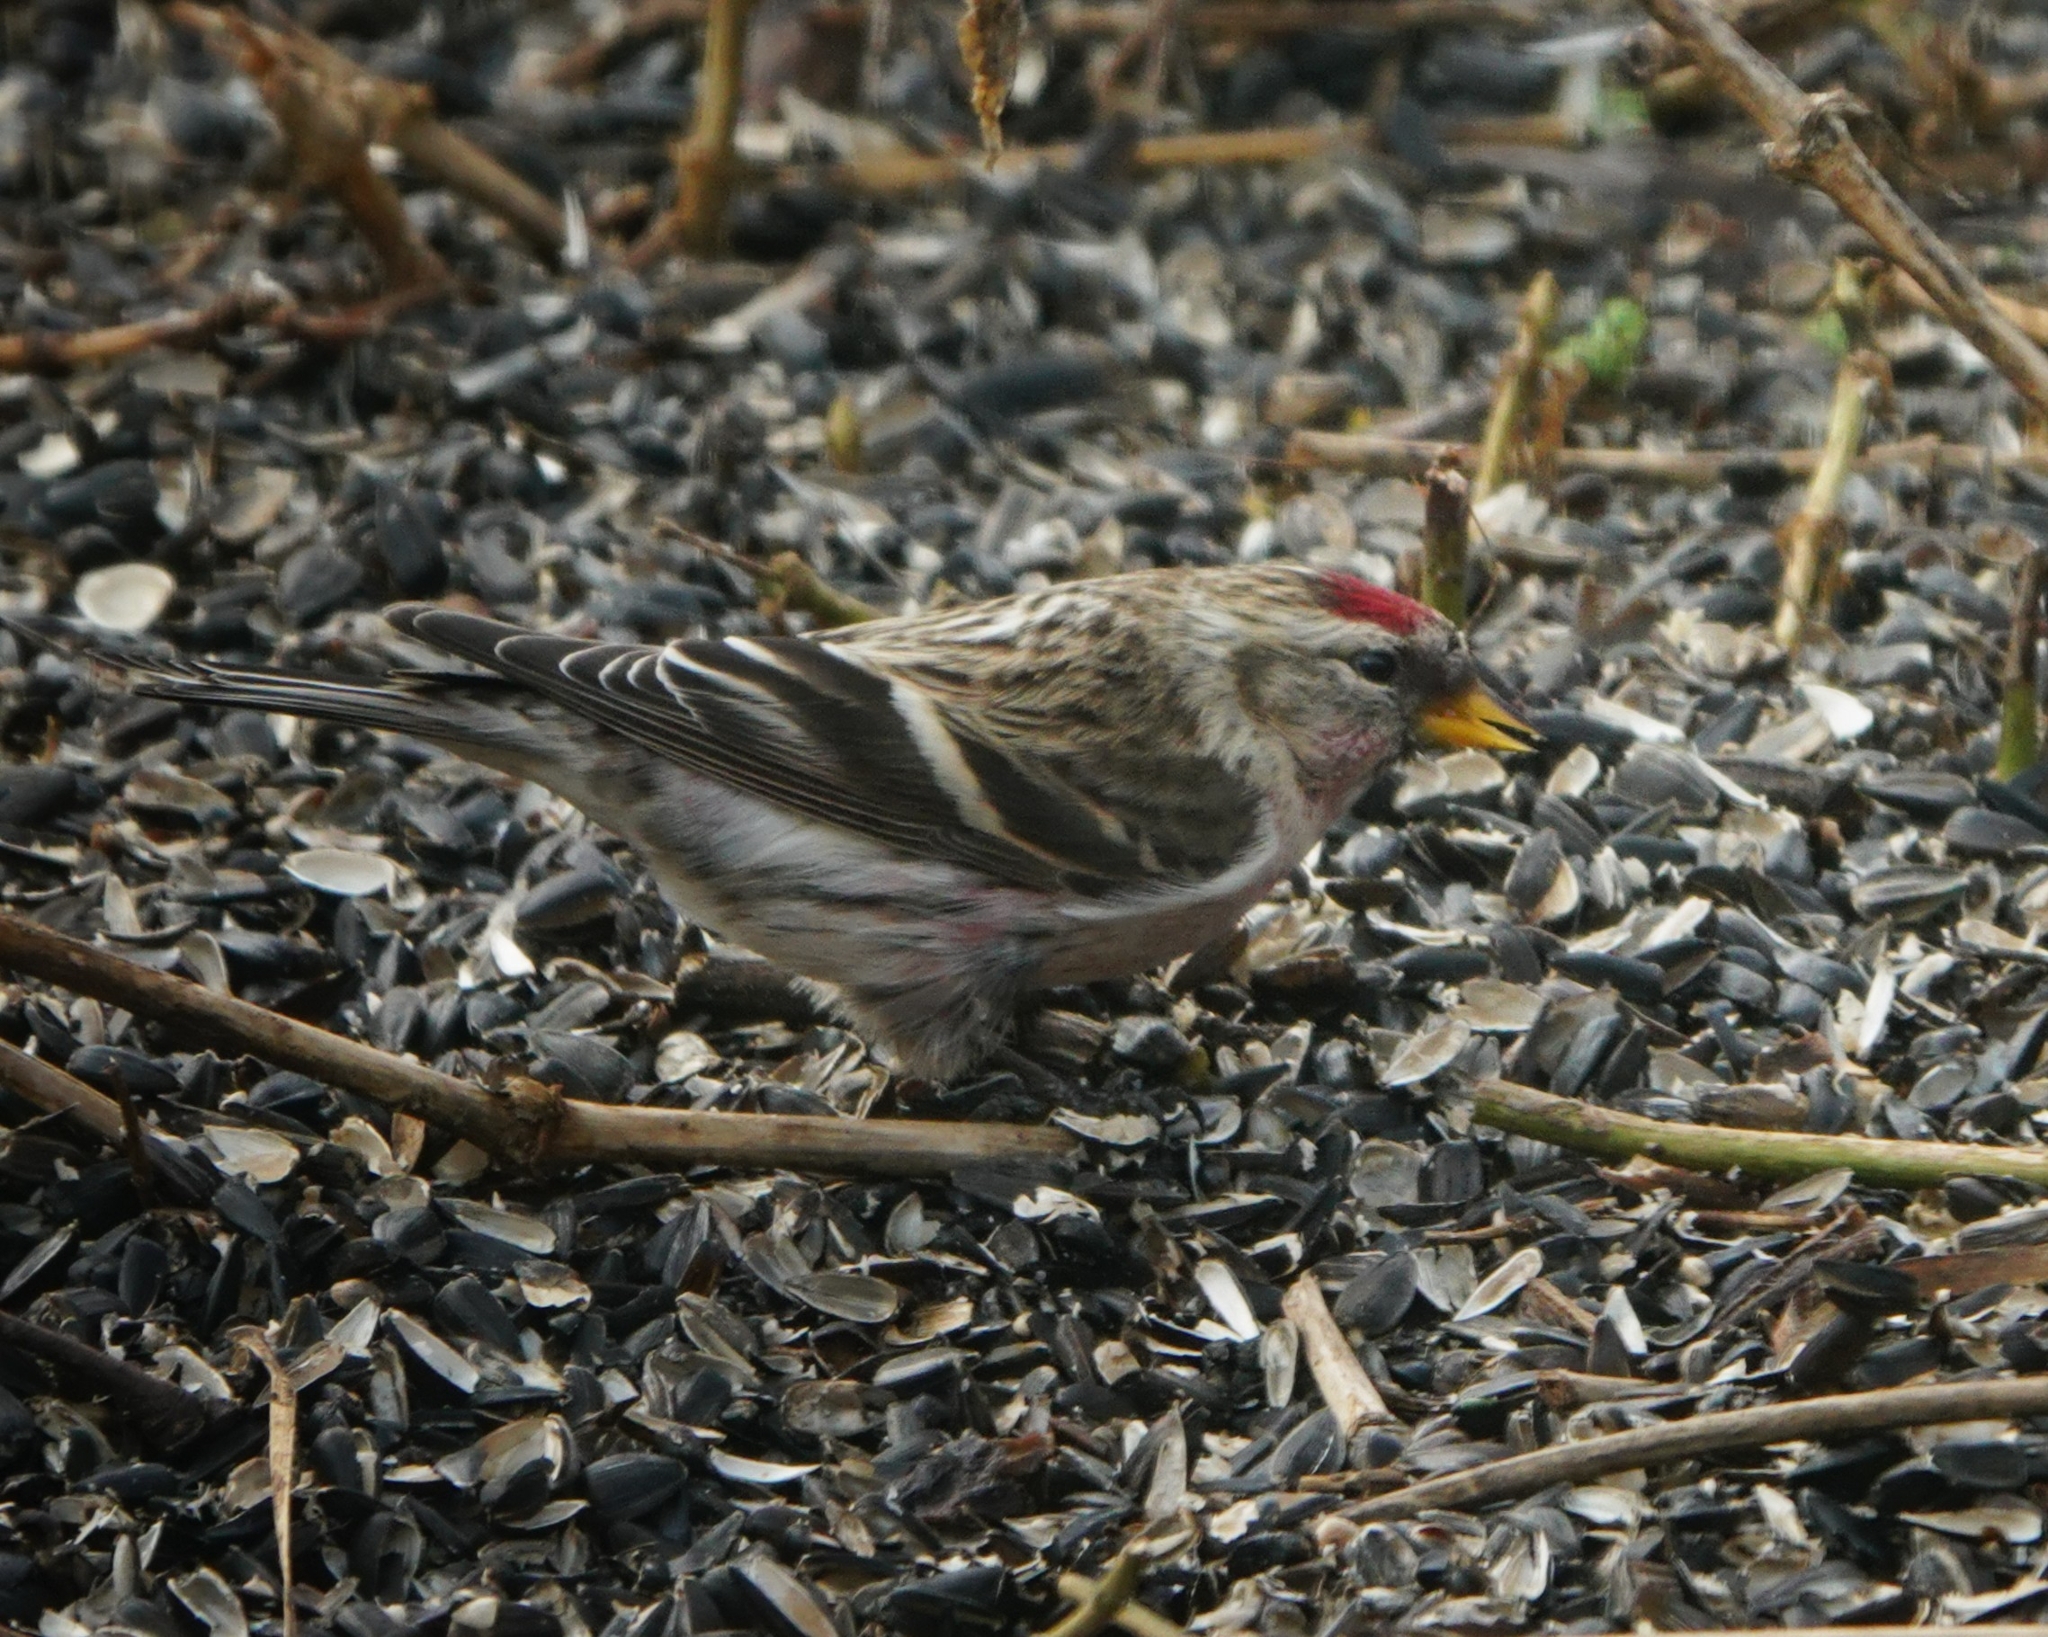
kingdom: Animalia
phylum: Chordata
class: Aves
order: Passeriformes
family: Fringillidae
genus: Acanthis
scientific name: Acanthis flammea
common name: Common redpoll
